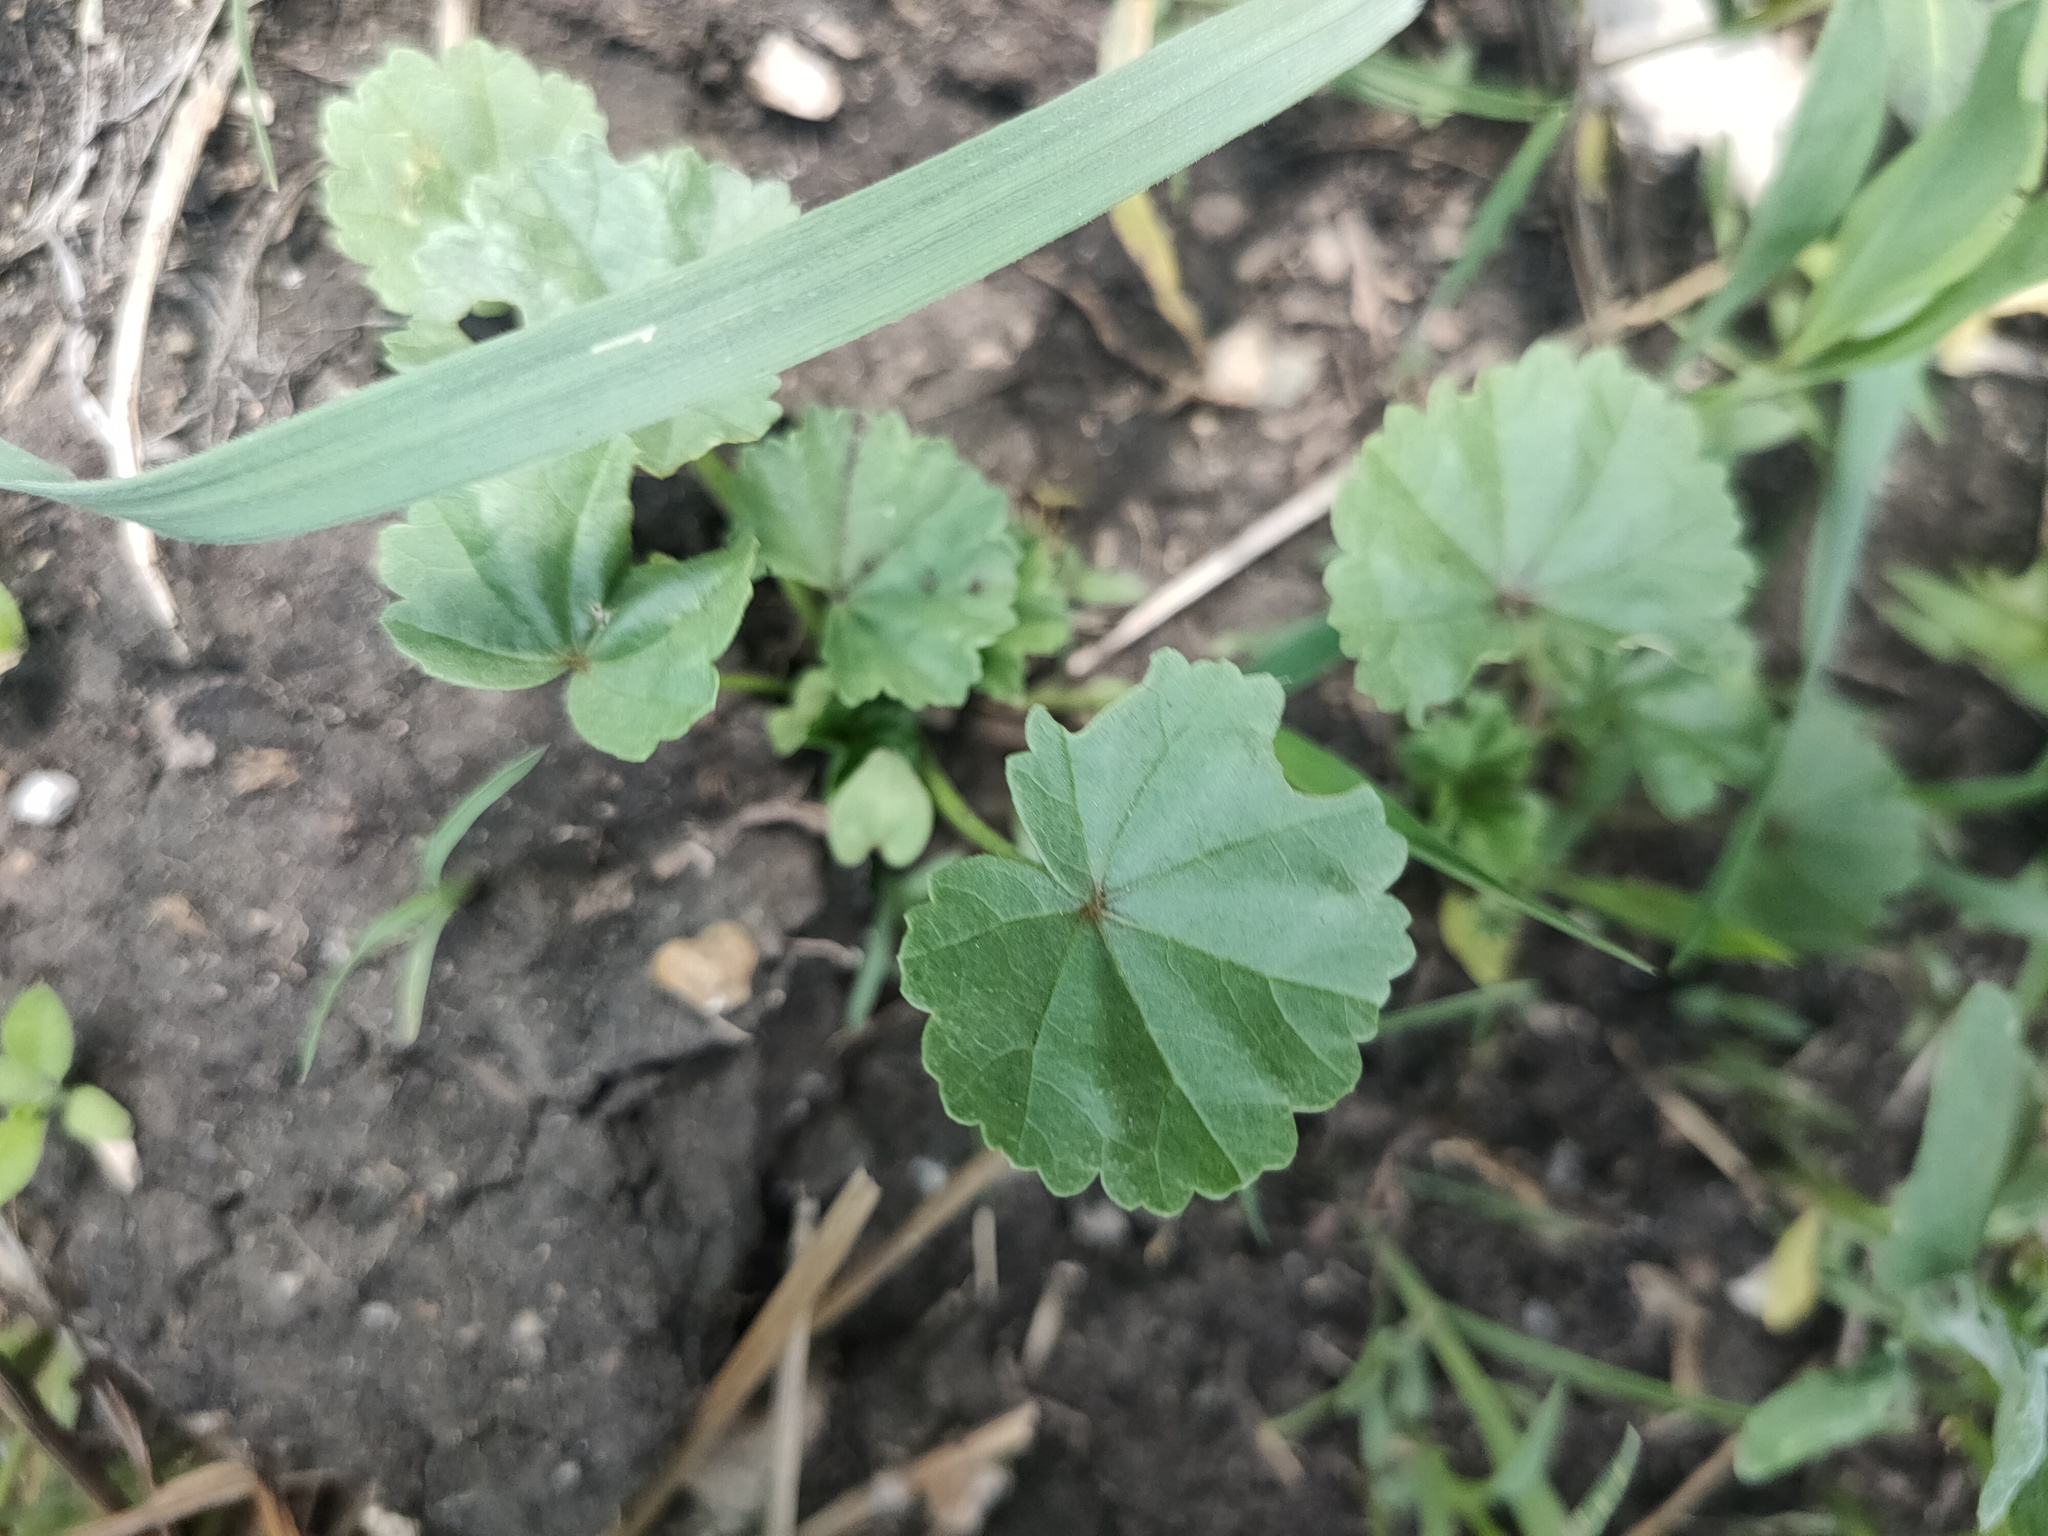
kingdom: Plantae
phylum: Tracheophyta
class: Magnoliopsida
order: Malvales
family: Malvaceae
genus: Malva
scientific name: Malva pusilla
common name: Small mallow
